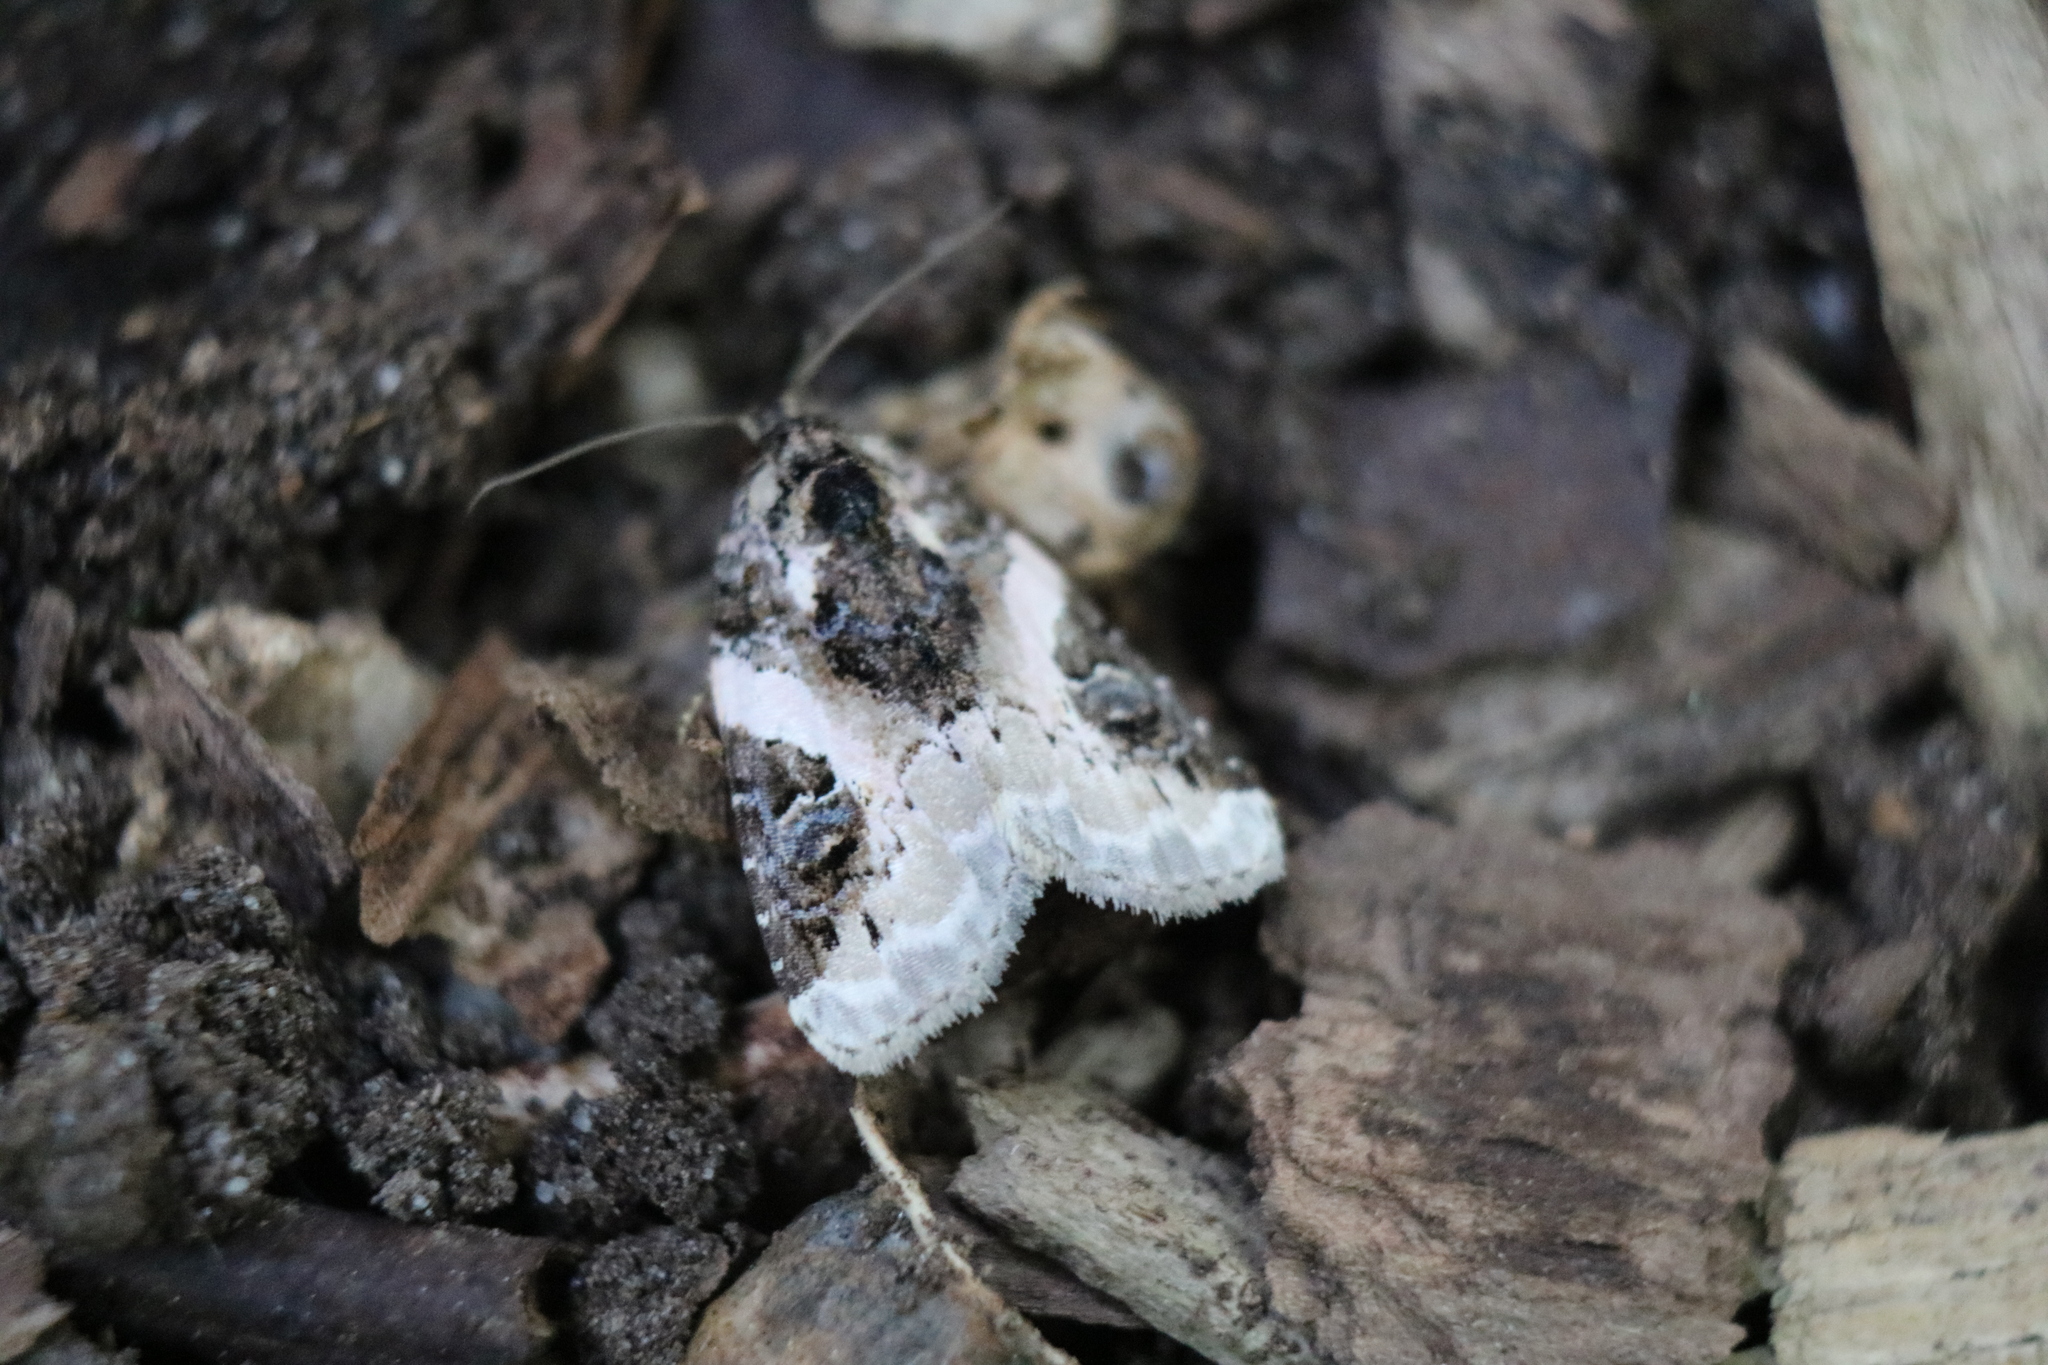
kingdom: Animalia
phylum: Arthropoda
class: Insecta
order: Lepidoptera
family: Noctuidae
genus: Pseudeustrotia
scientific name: Pseudeustrotia carneola
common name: Pink-barred lithacodia moth
